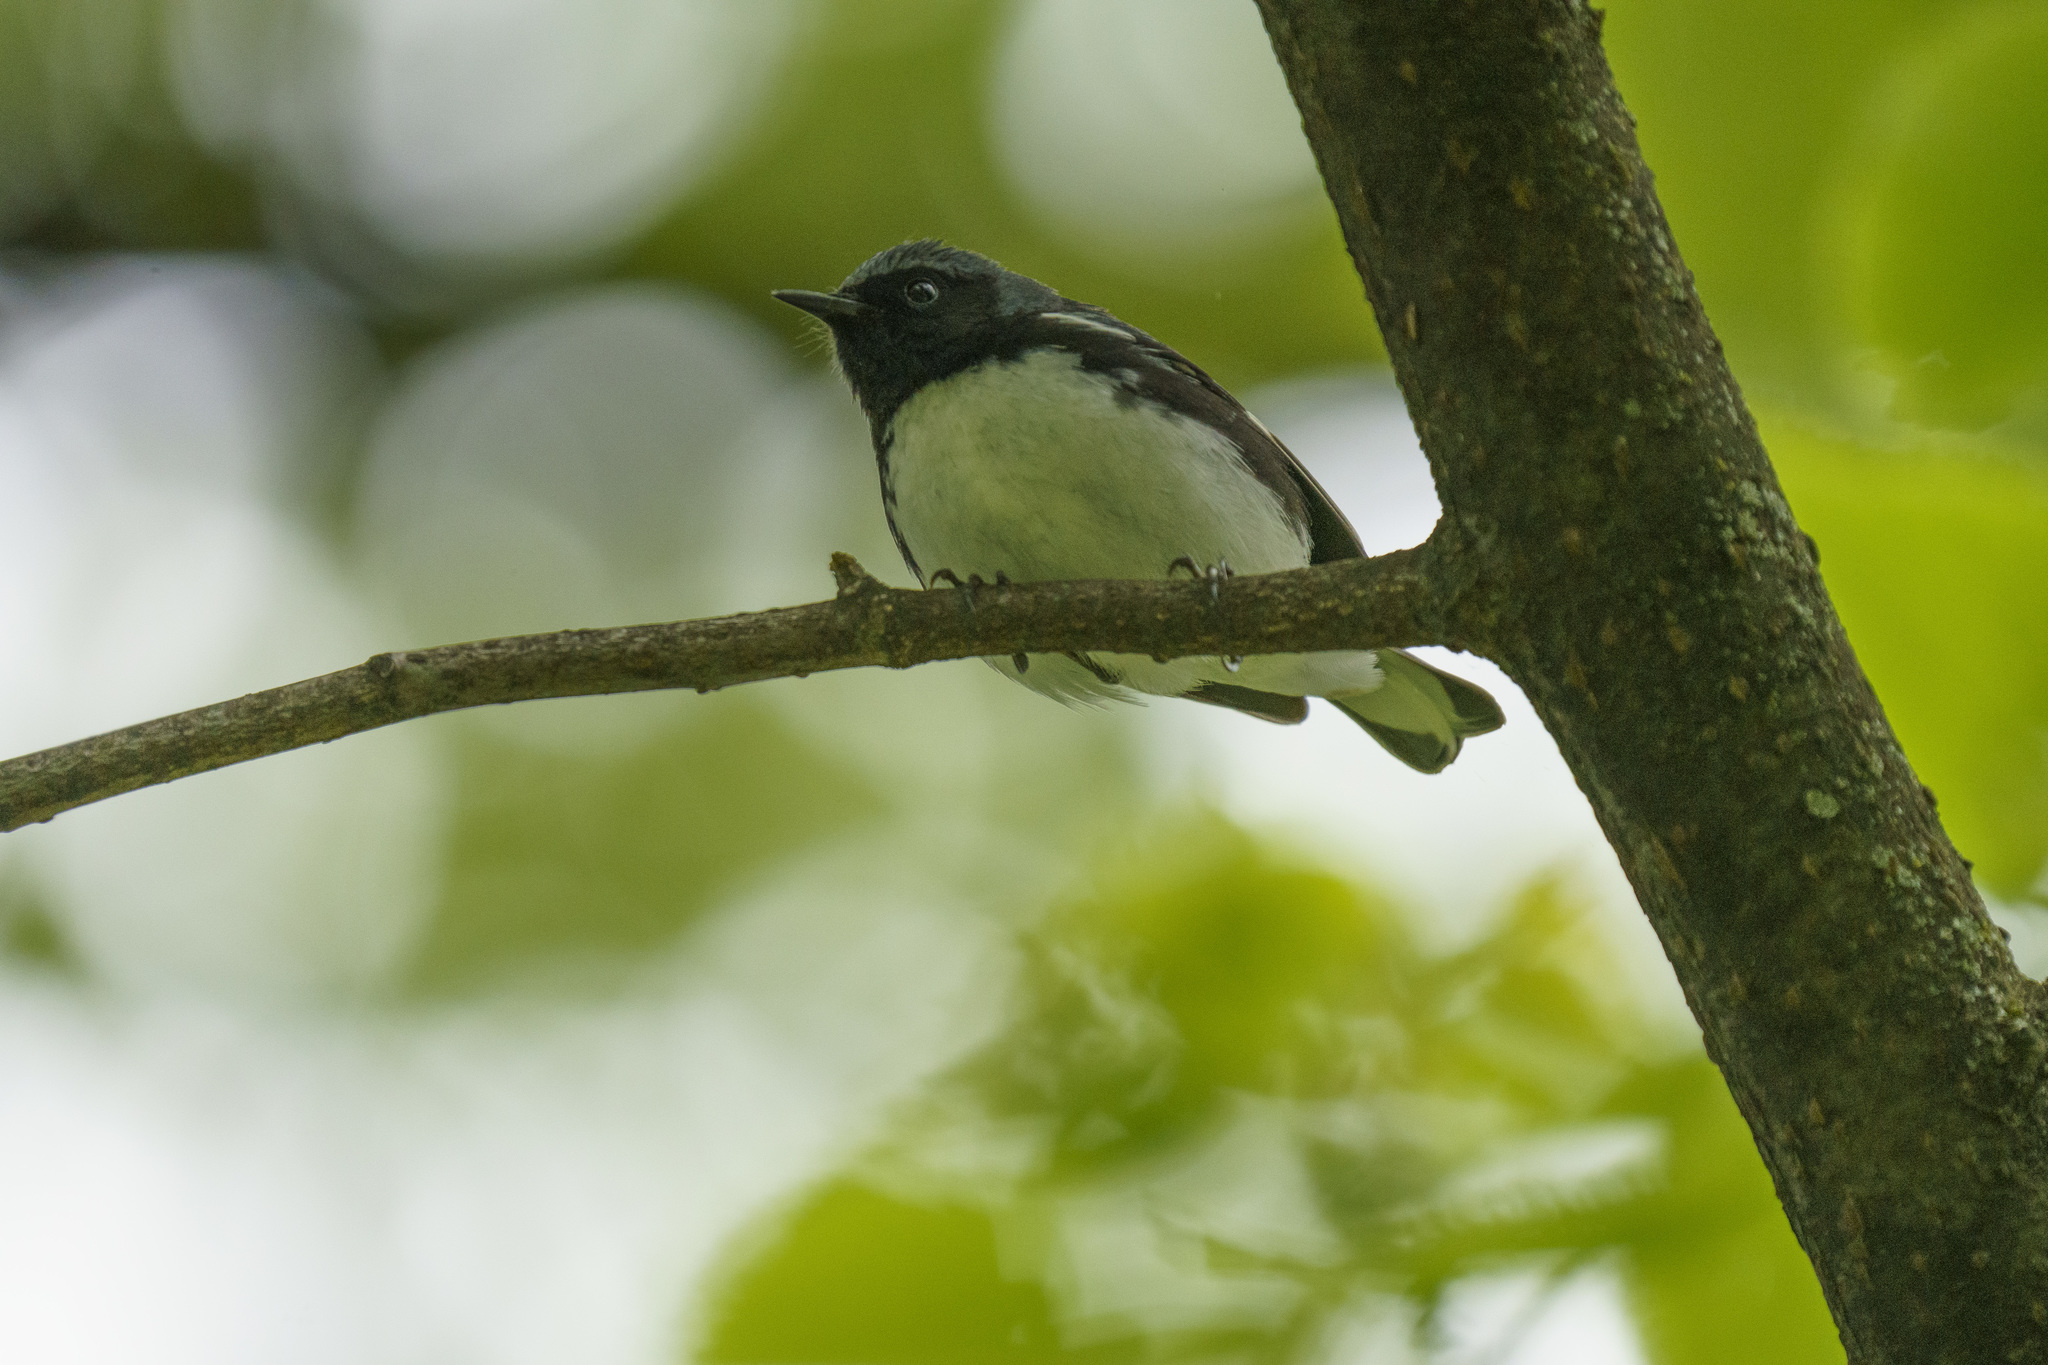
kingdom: Animalia
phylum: Chordata
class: Aves
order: Passeriformes
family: Parulidae
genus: Setophaga
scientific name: Setophaga caerulescens
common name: Black-throated blue warbler
